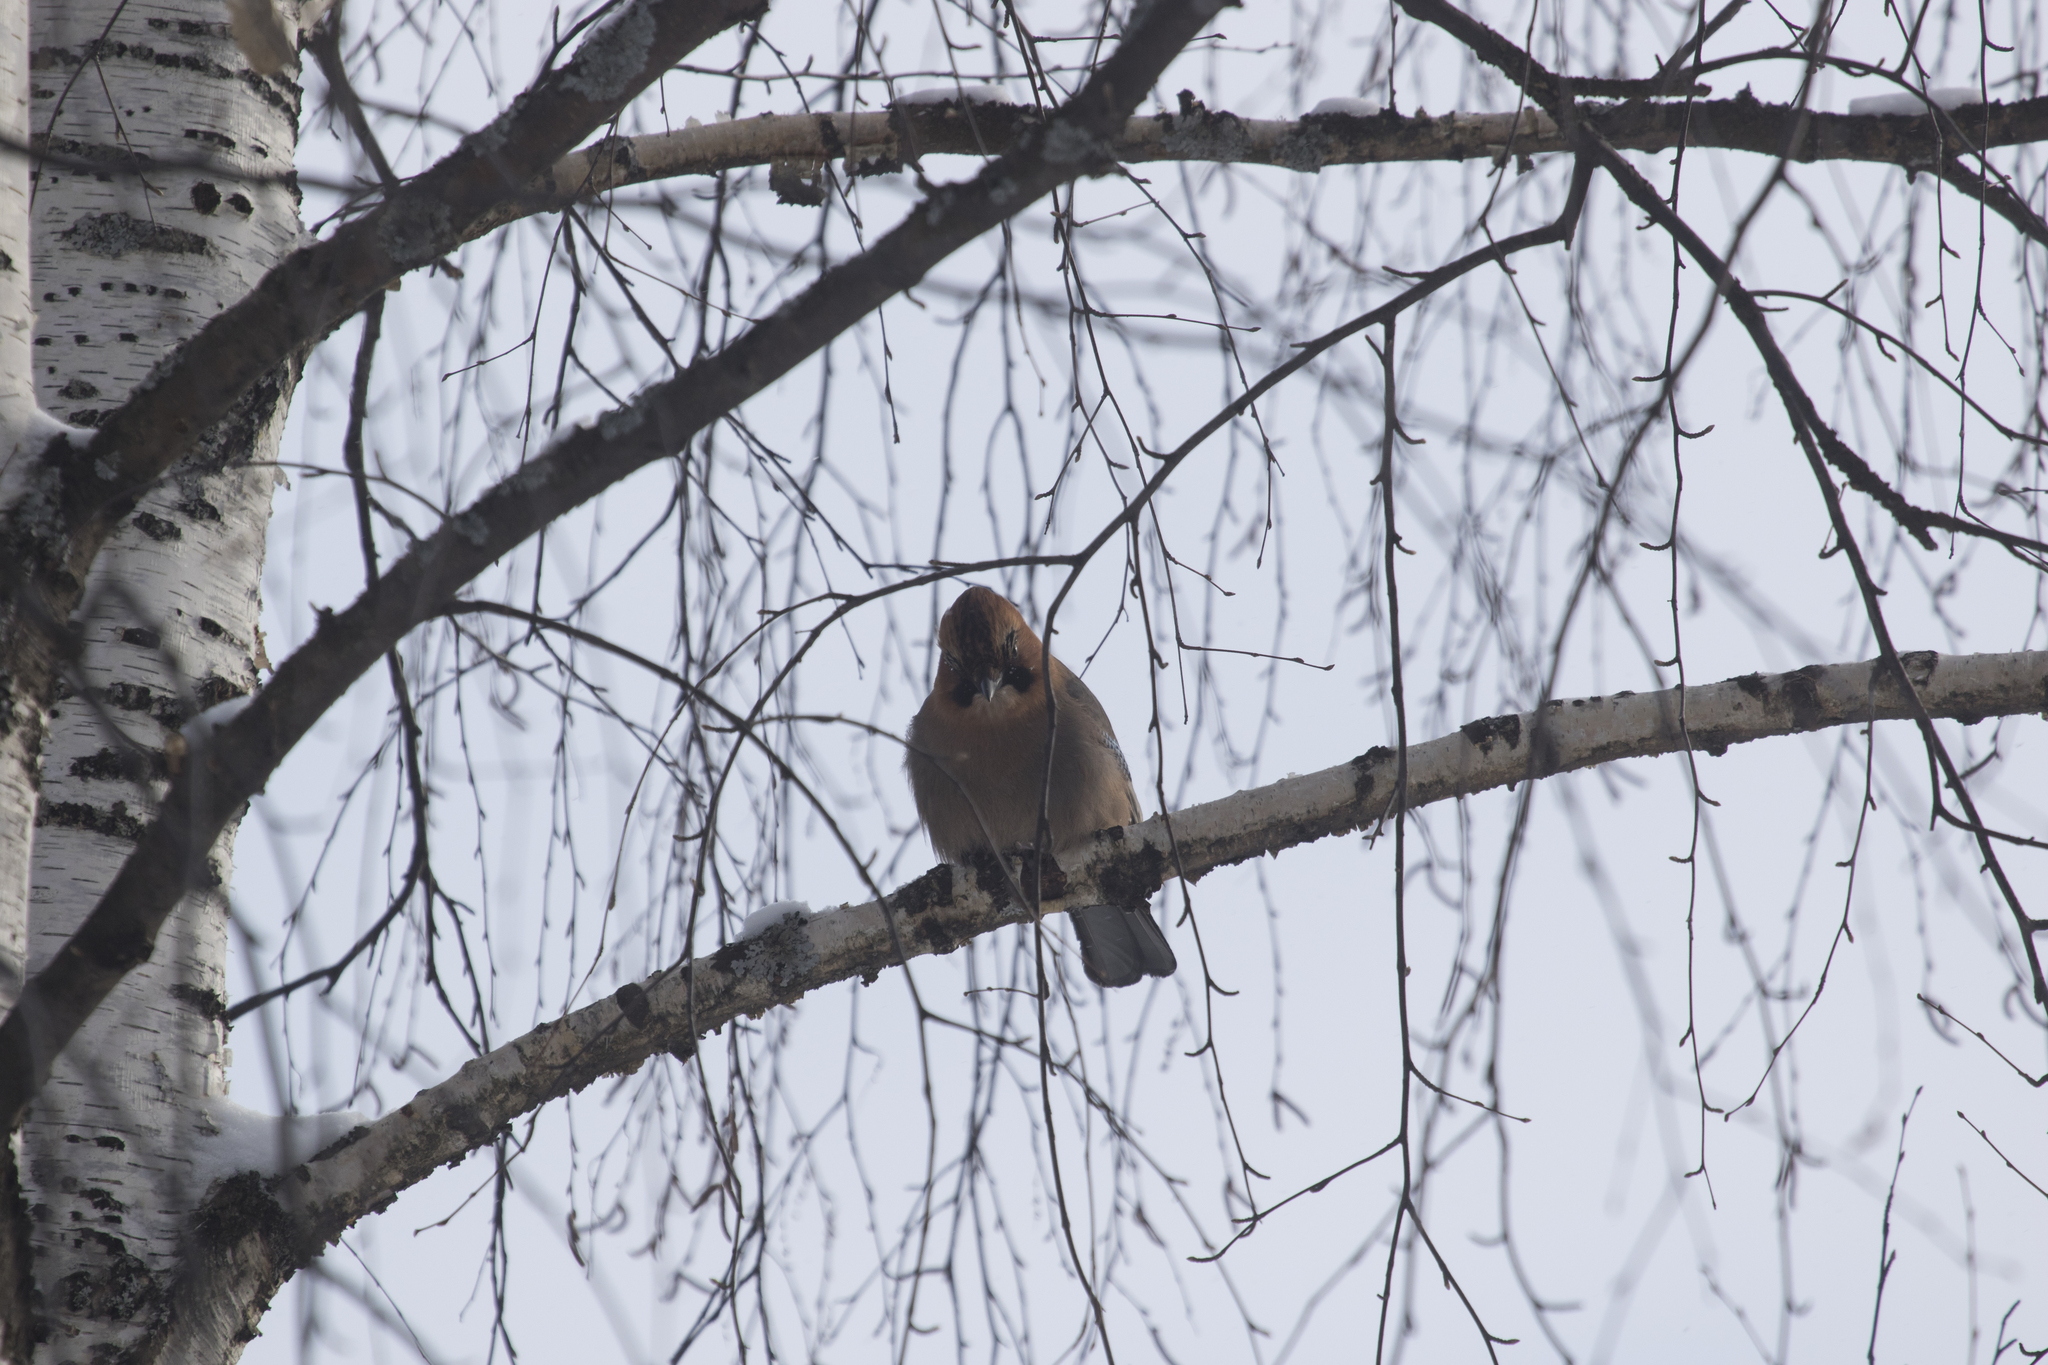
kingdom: Animalia
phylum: Chordata
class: Aves
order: Passeriformes
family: Corvidae
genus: Garrulus
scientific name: Garrulus glandarius
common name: Eurasian jay
